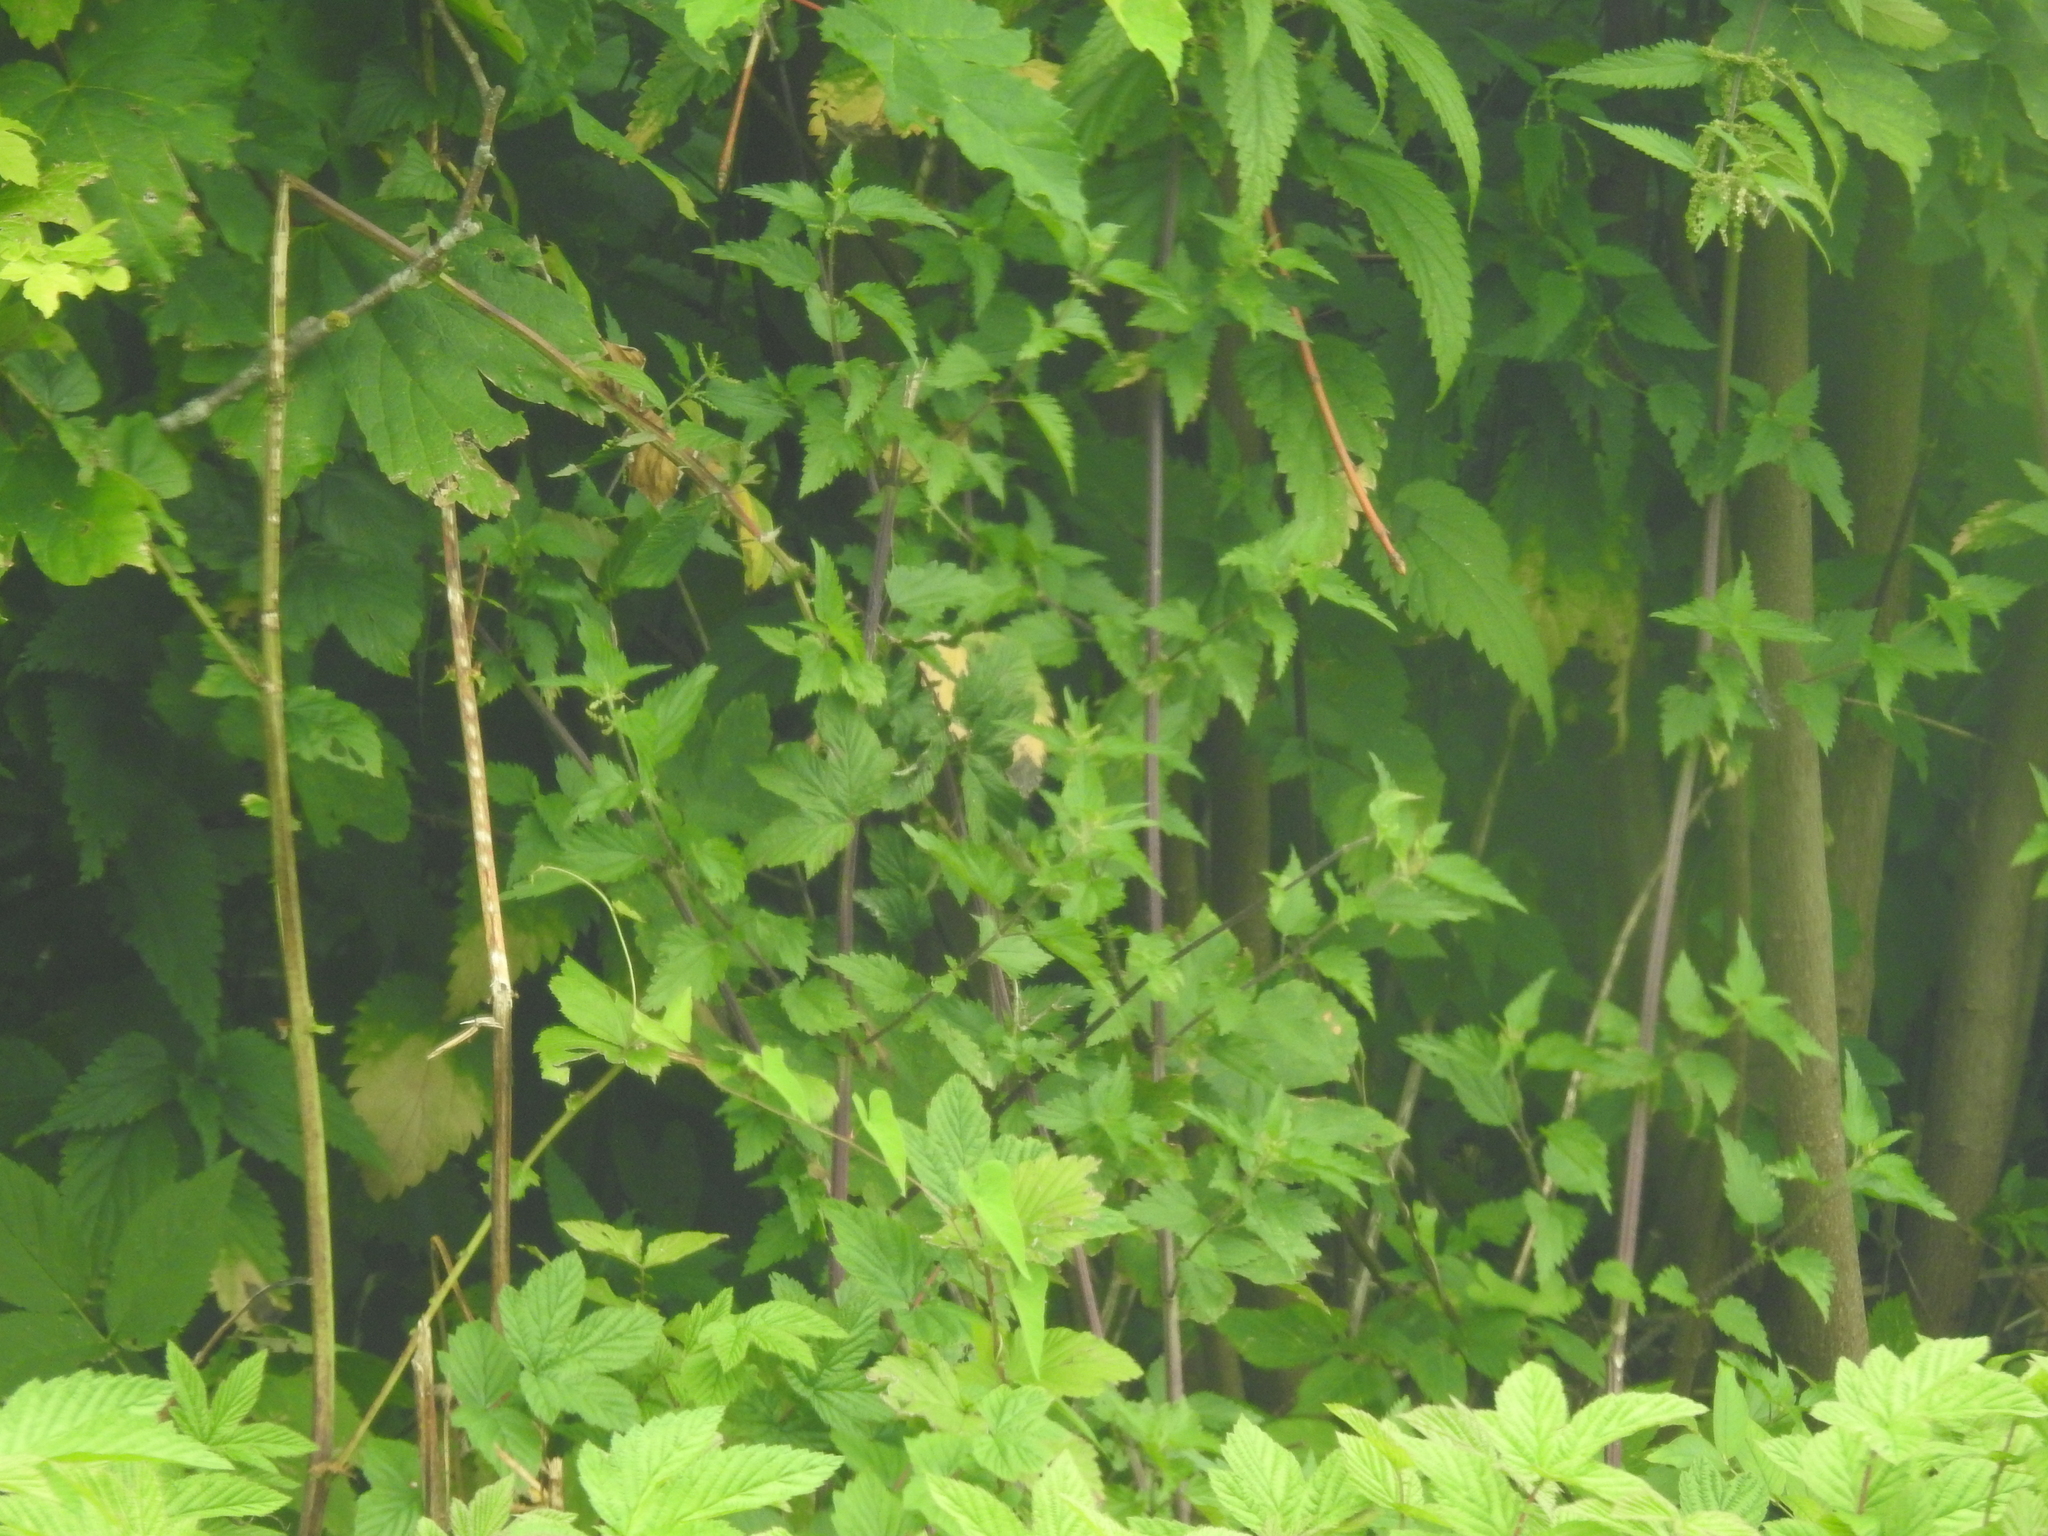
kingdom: Plantae
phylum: Tracheophyta
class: Magnoliopsida
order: Rosales
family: Urticaceae
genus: Urtica
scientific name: Urtica dioica
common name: Common nettle
